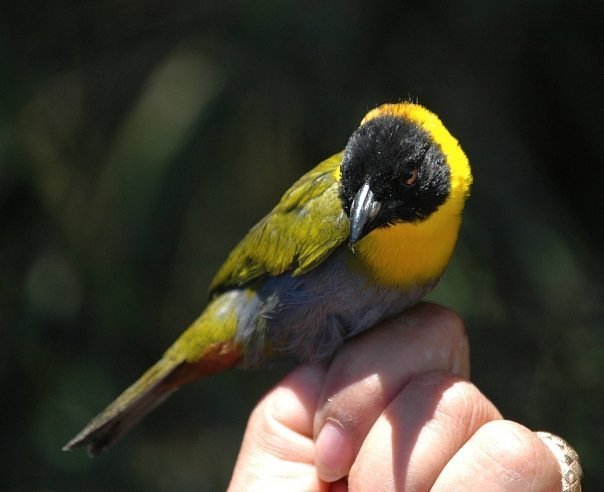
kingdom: Animalia
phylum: Chordata
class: Aves
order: Passeriformes
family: Ploceidae
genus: Ploceus
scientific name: Ploceus nelicourvi
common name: Nelicourvi weaver
